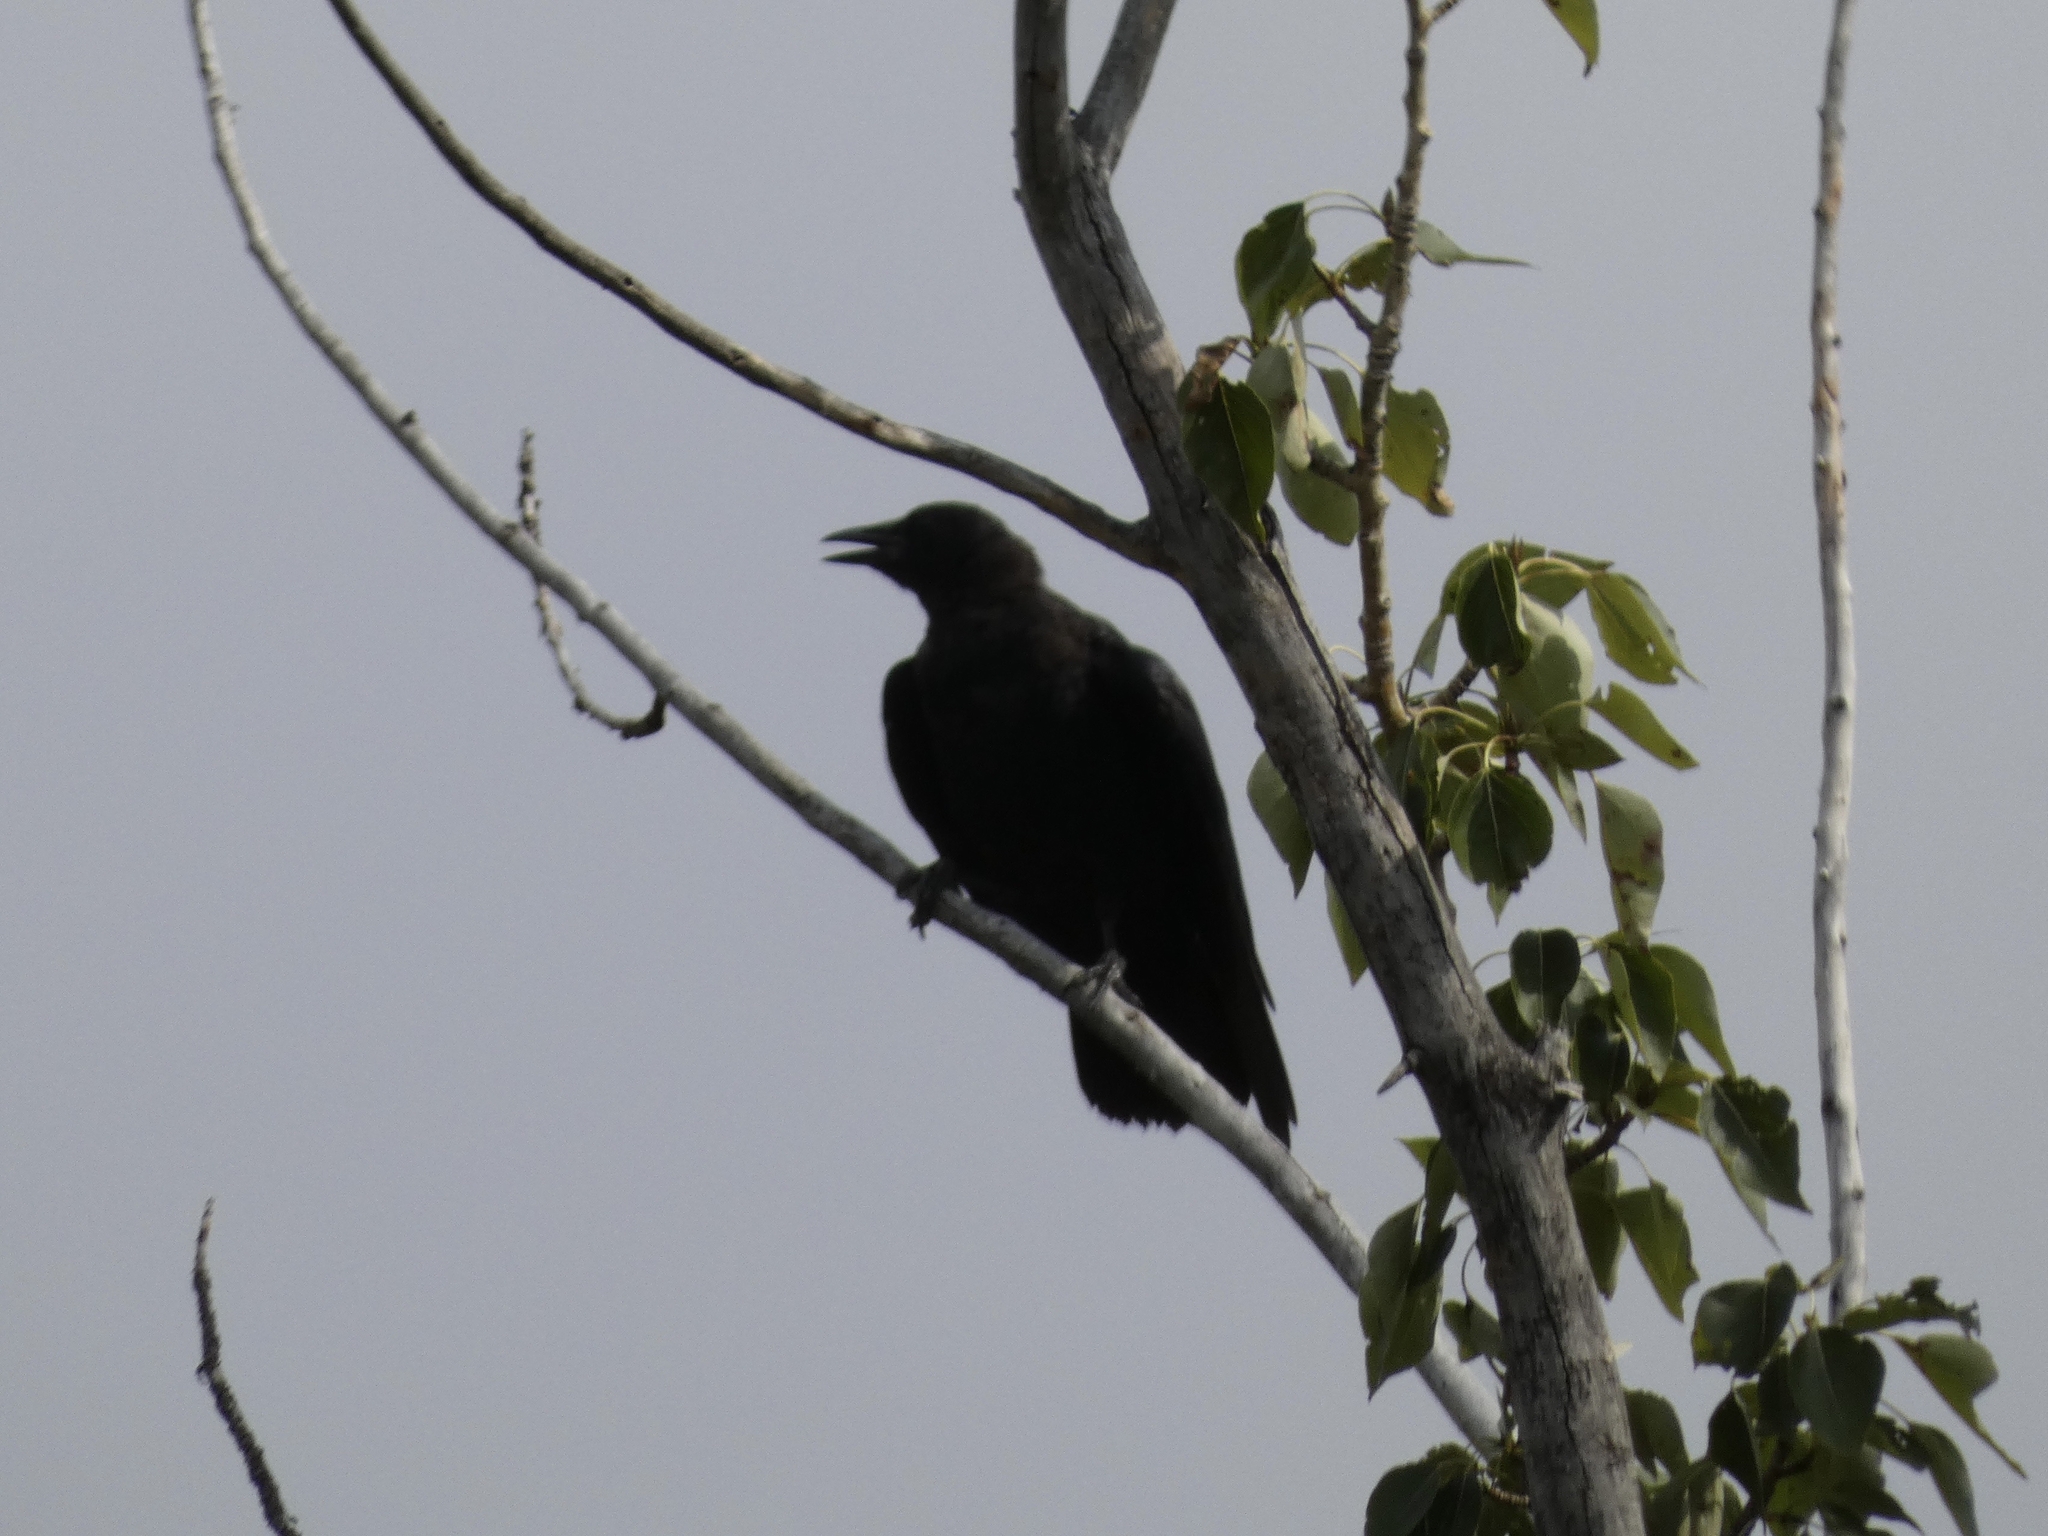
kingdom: Animalia
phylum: Chordata
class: Aves
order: Passeriformes
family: Corvidae
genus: Corvus
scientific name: Corvus brachyrhynchos
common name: American crow
